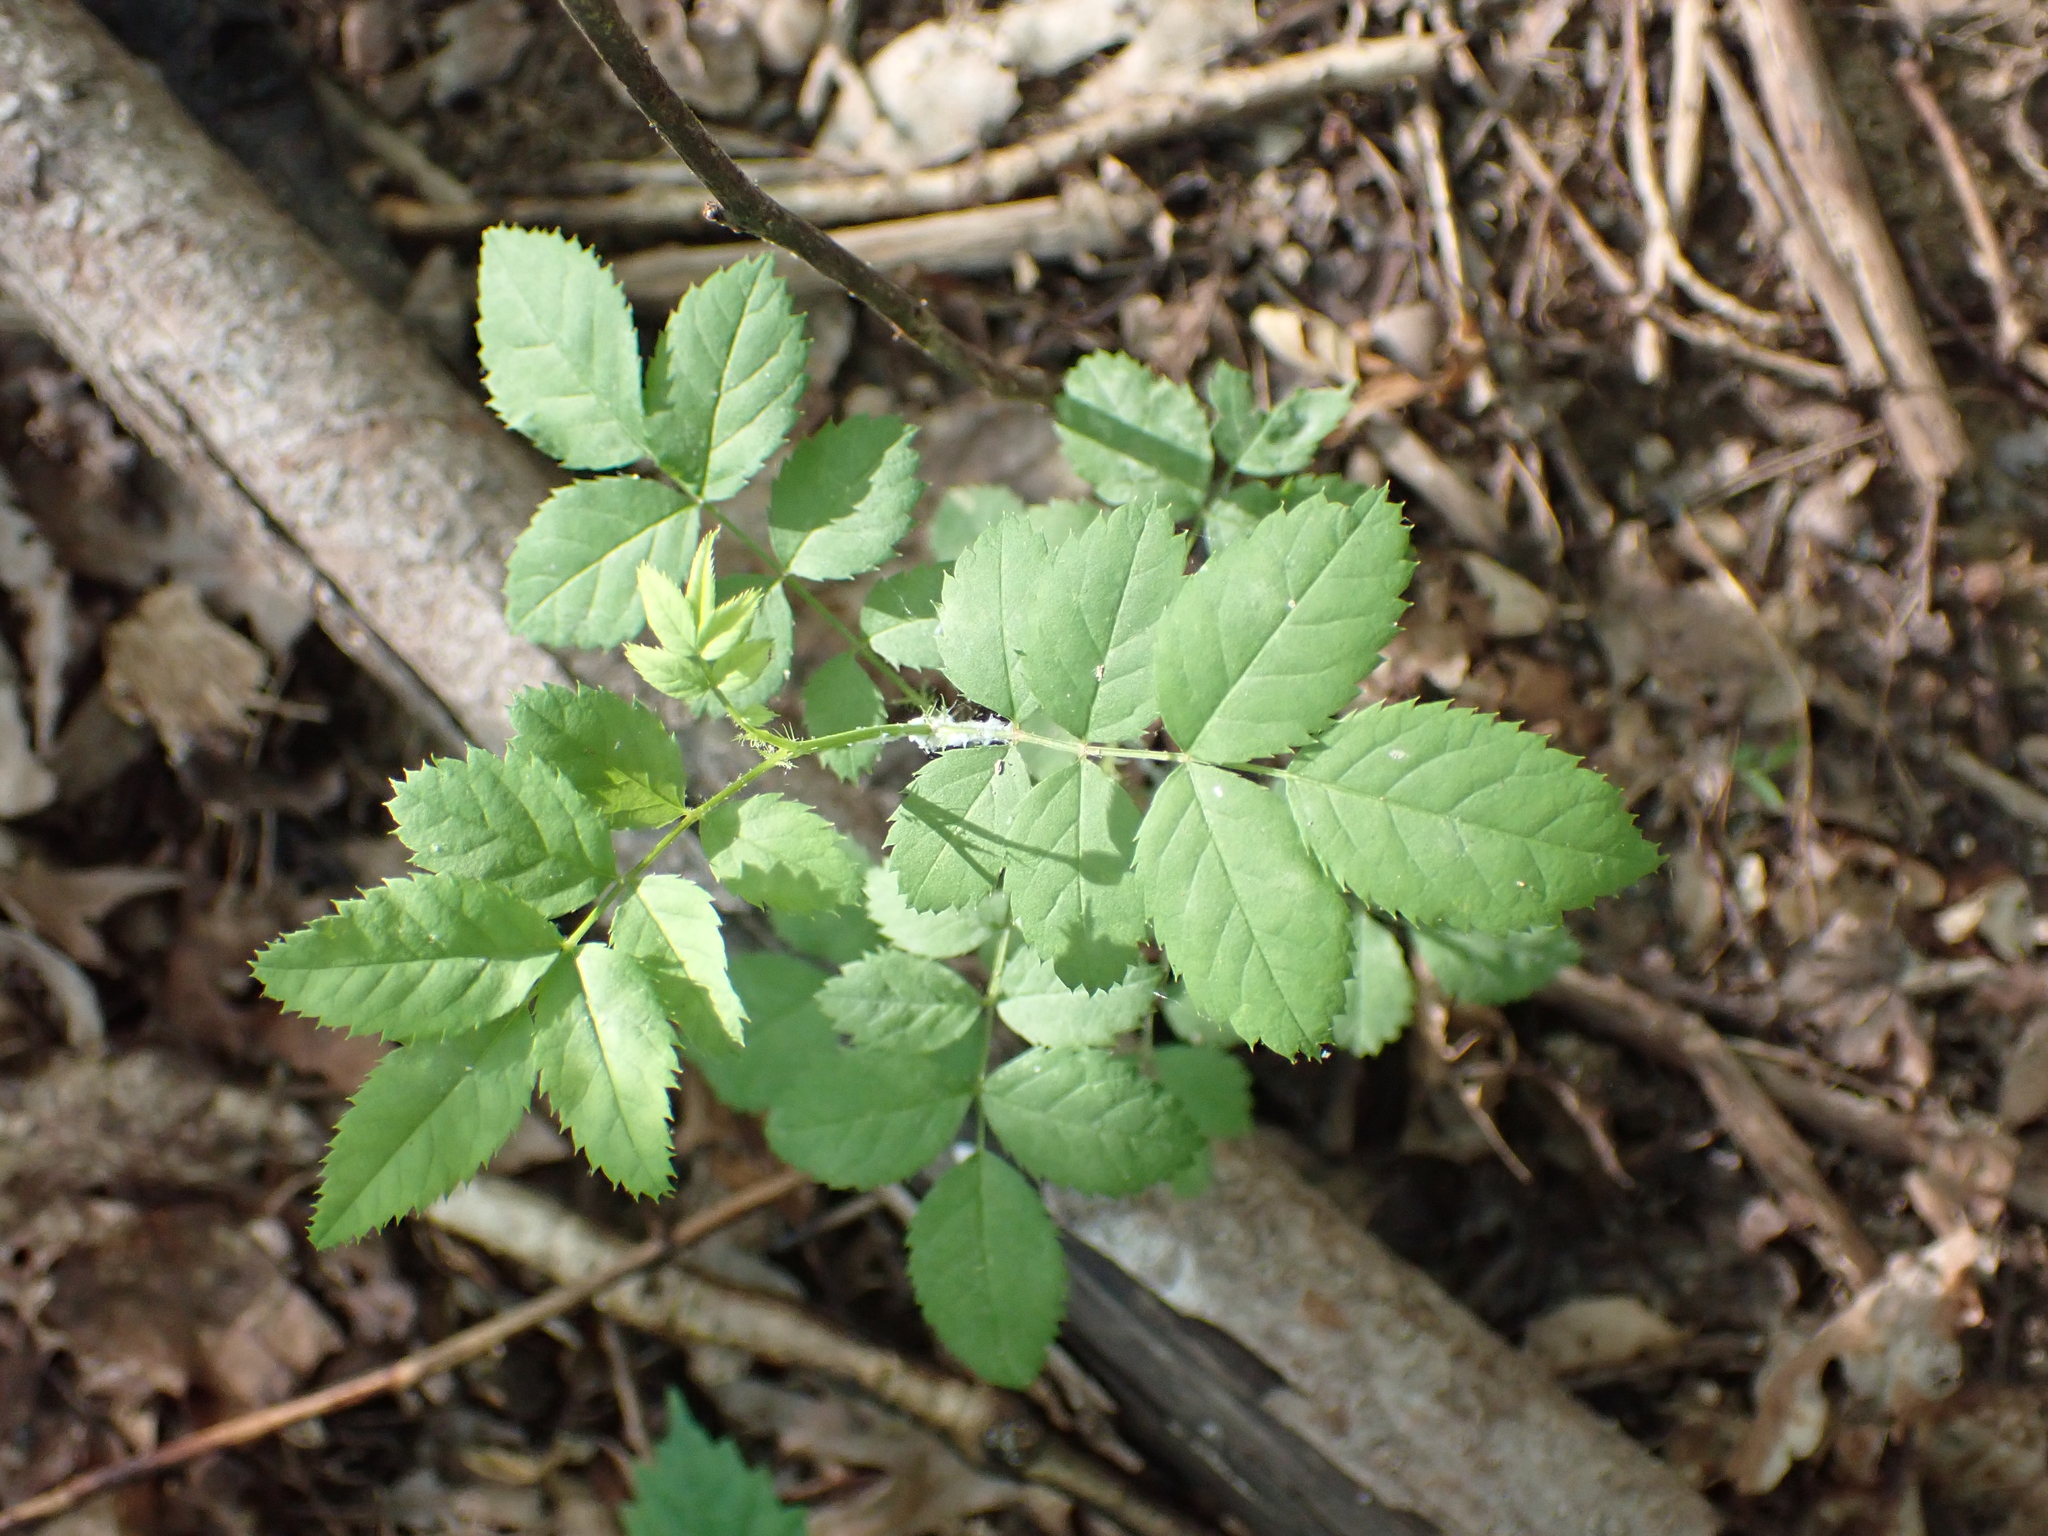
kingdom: Plantae
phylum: Tracheophyta
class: Magnoliopsida
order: Rosales
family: Rosaceae
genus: Rosa
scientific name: Rosa multiflora
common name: Multiflora rose
